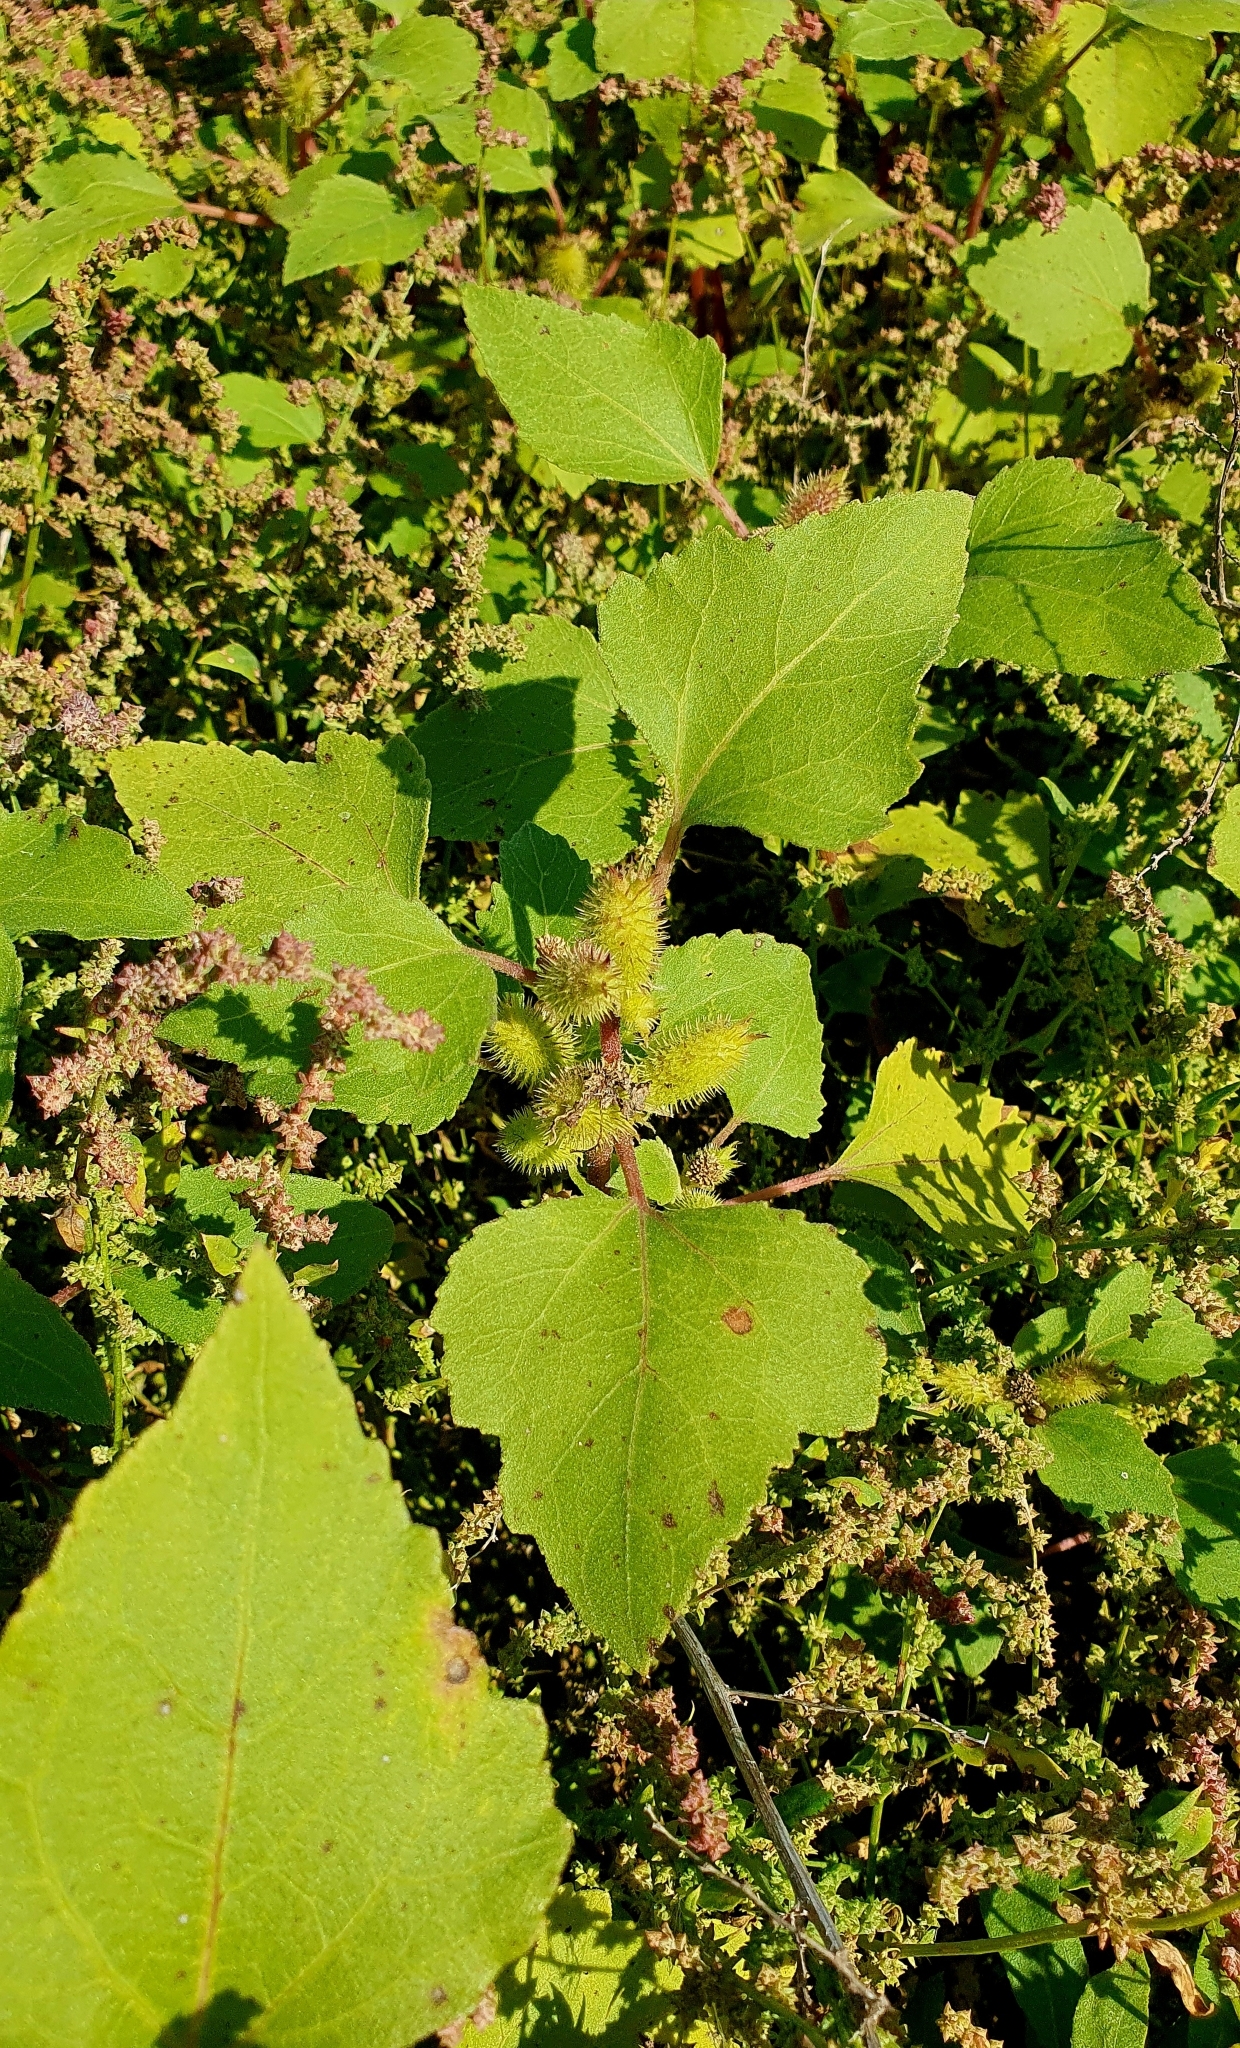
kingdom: Plantae
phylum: Tracheophyta
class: Magnoliopsida
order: Asterales
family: Asteraceae
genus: Xanthium
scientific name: Xanthium orientale
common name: Californian burr
